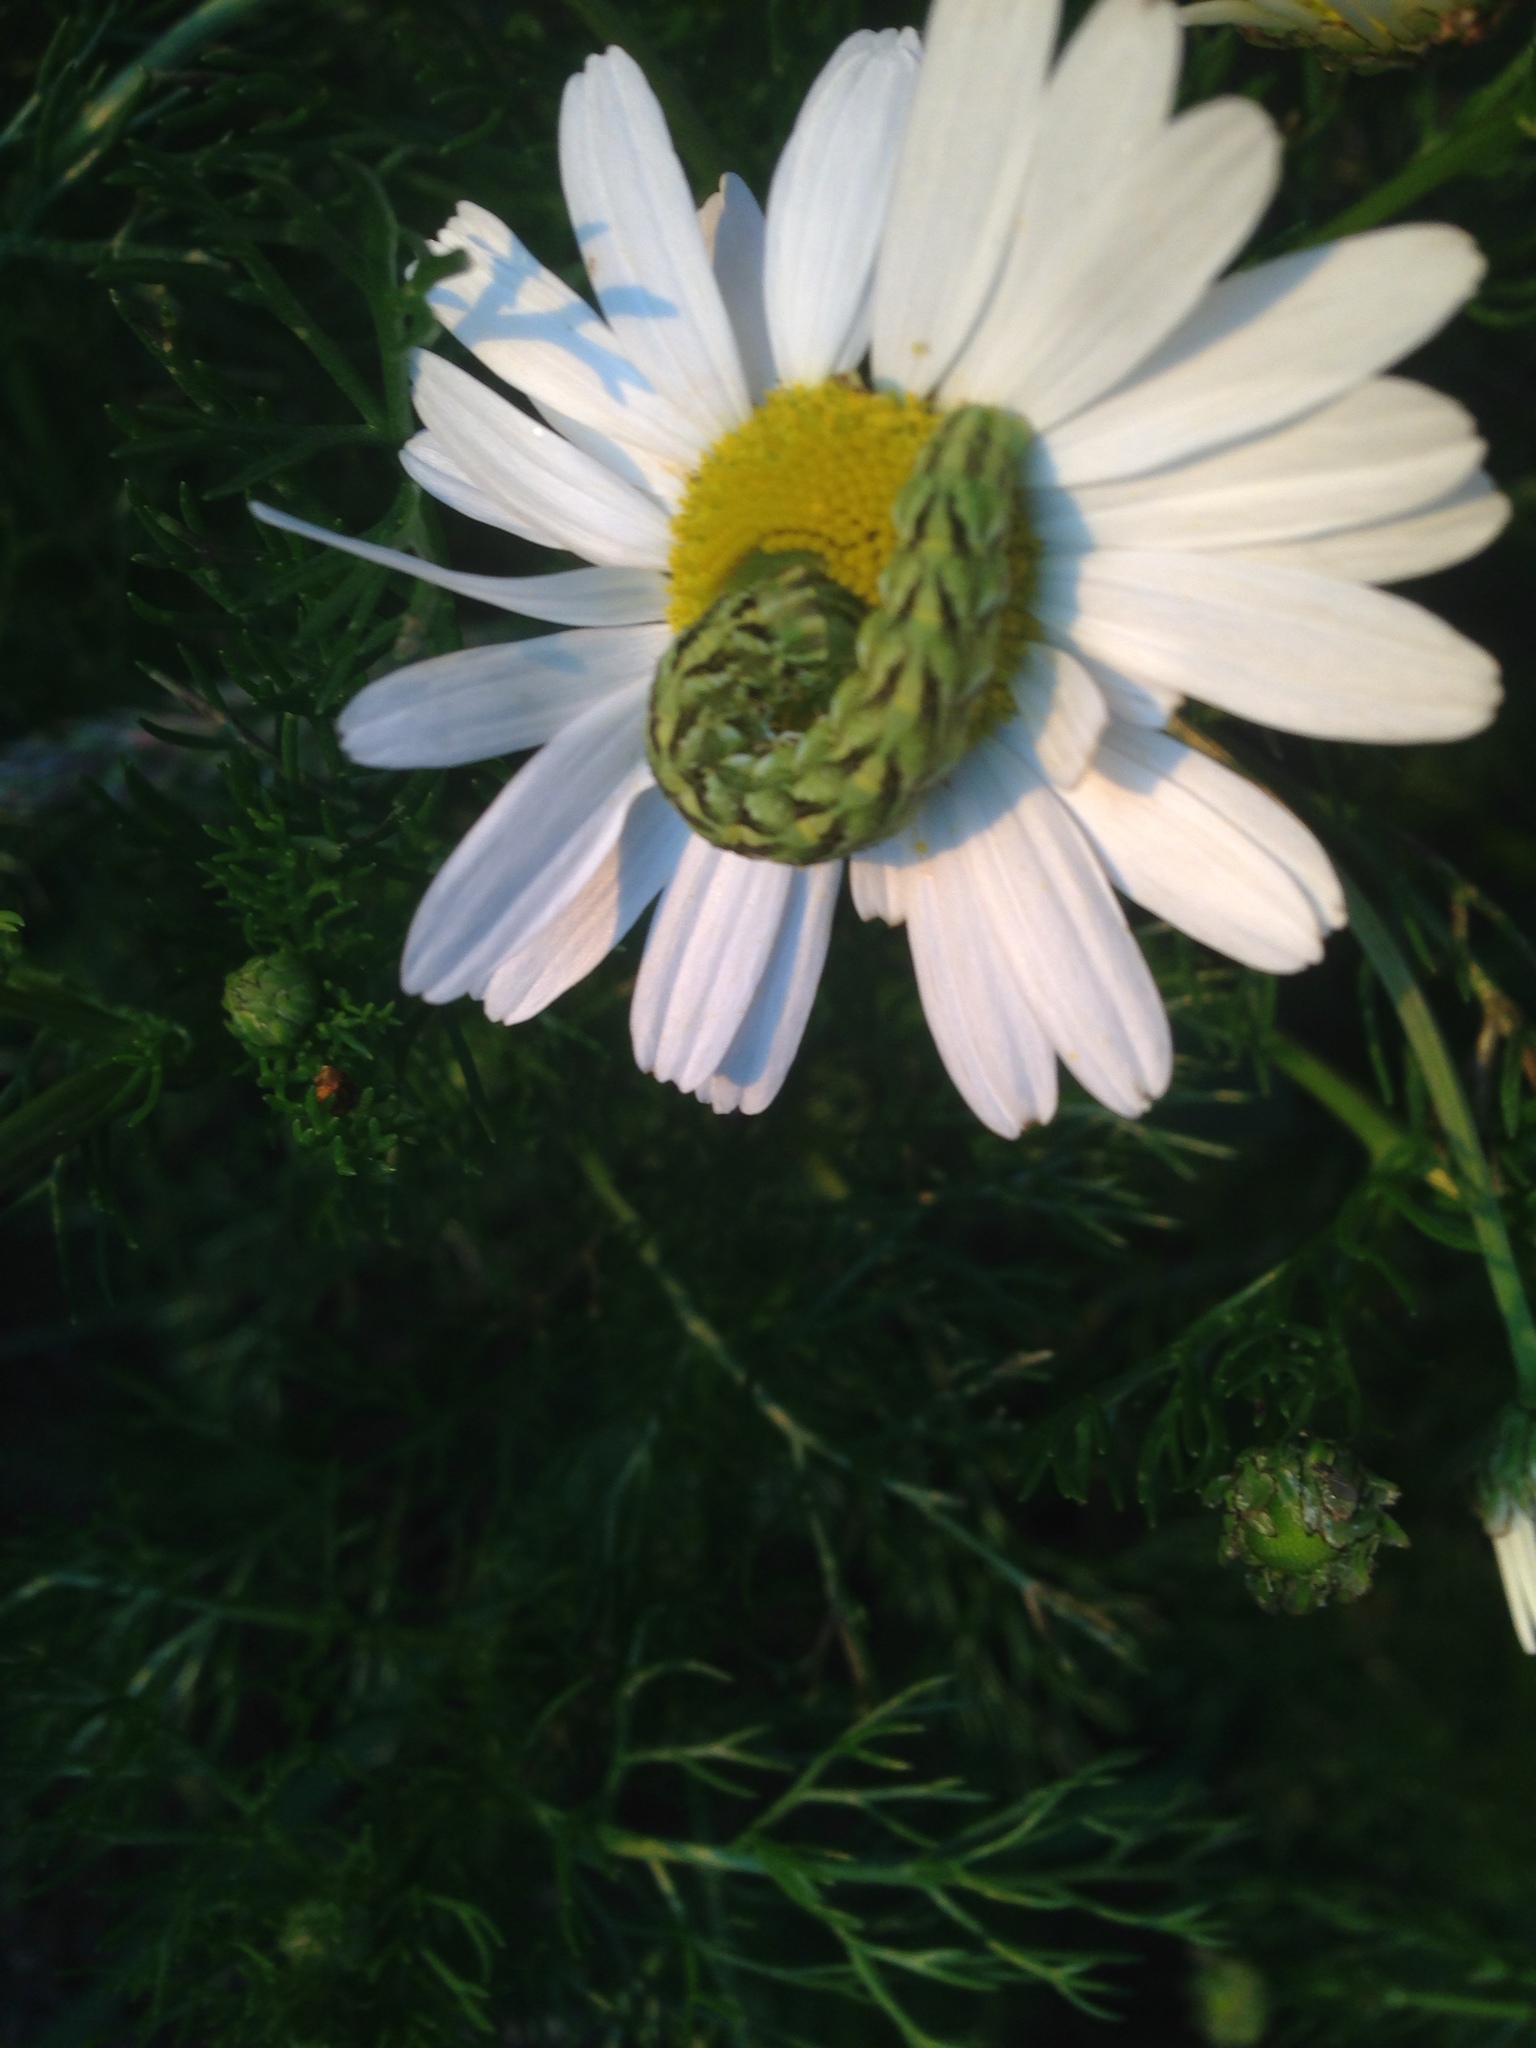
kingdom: Animalia
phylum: Arthropoda
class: Insecta
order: Lepidoptera
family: Noctuidae
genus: Cucullia
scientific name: Cucullia chamomillae
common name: Chamomile shark
